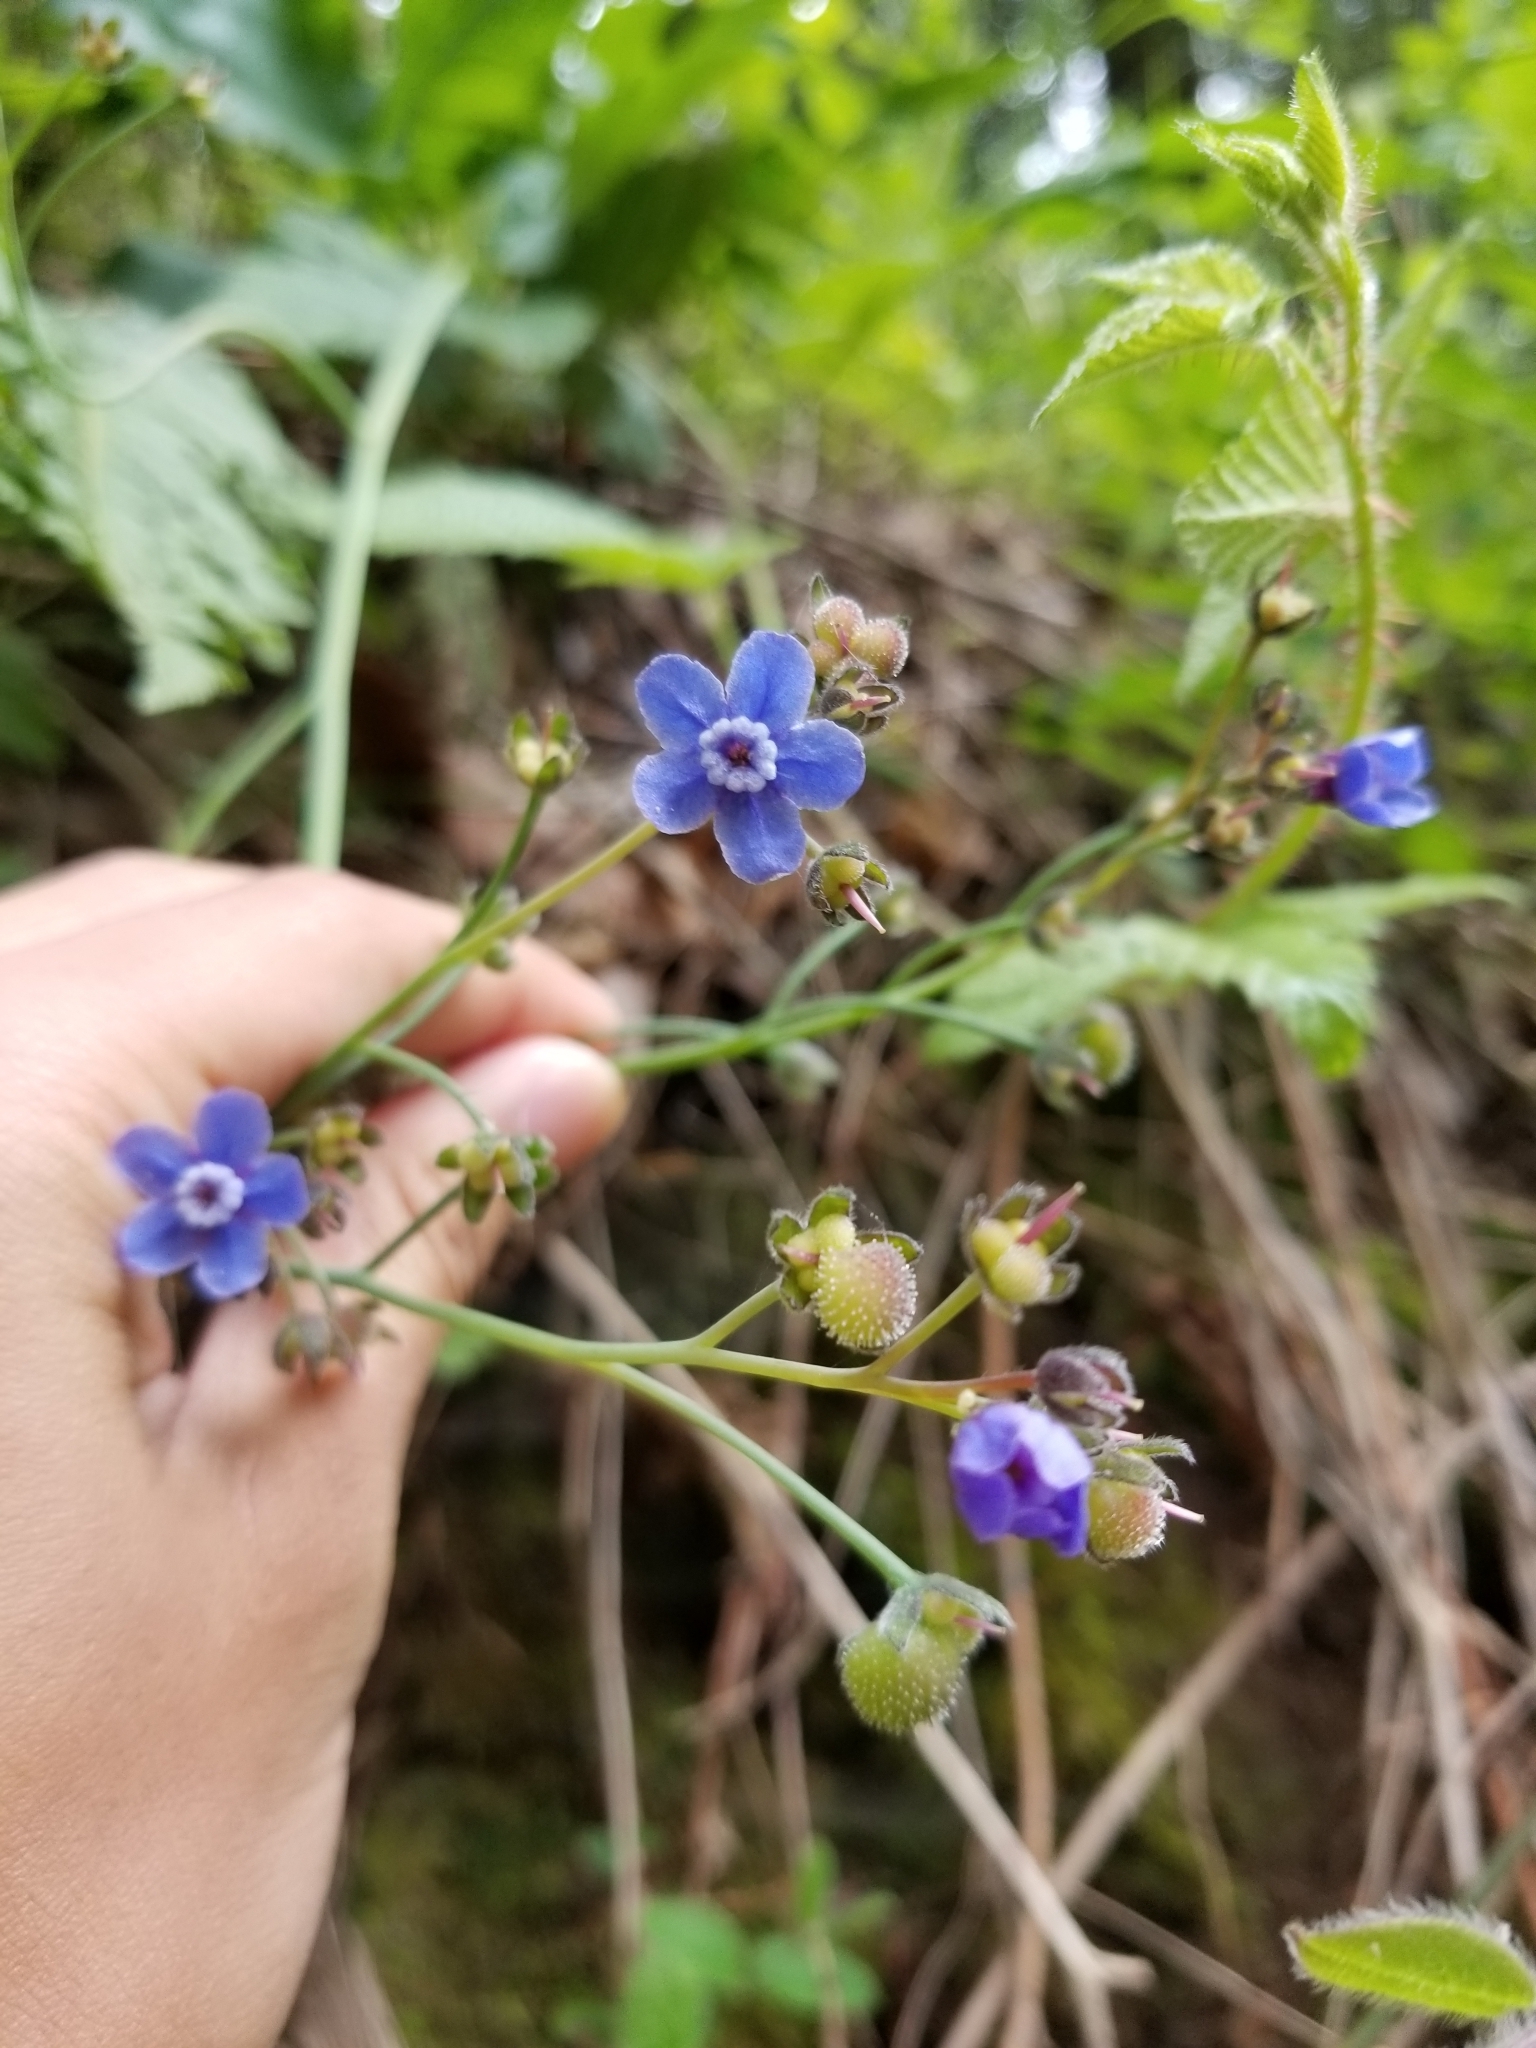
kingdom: Plantae
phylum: Tracheophyta
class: Magnoliopsida
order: Boraginales
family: Boraginaceae
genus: Adelinia
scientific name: Adelinia grande
